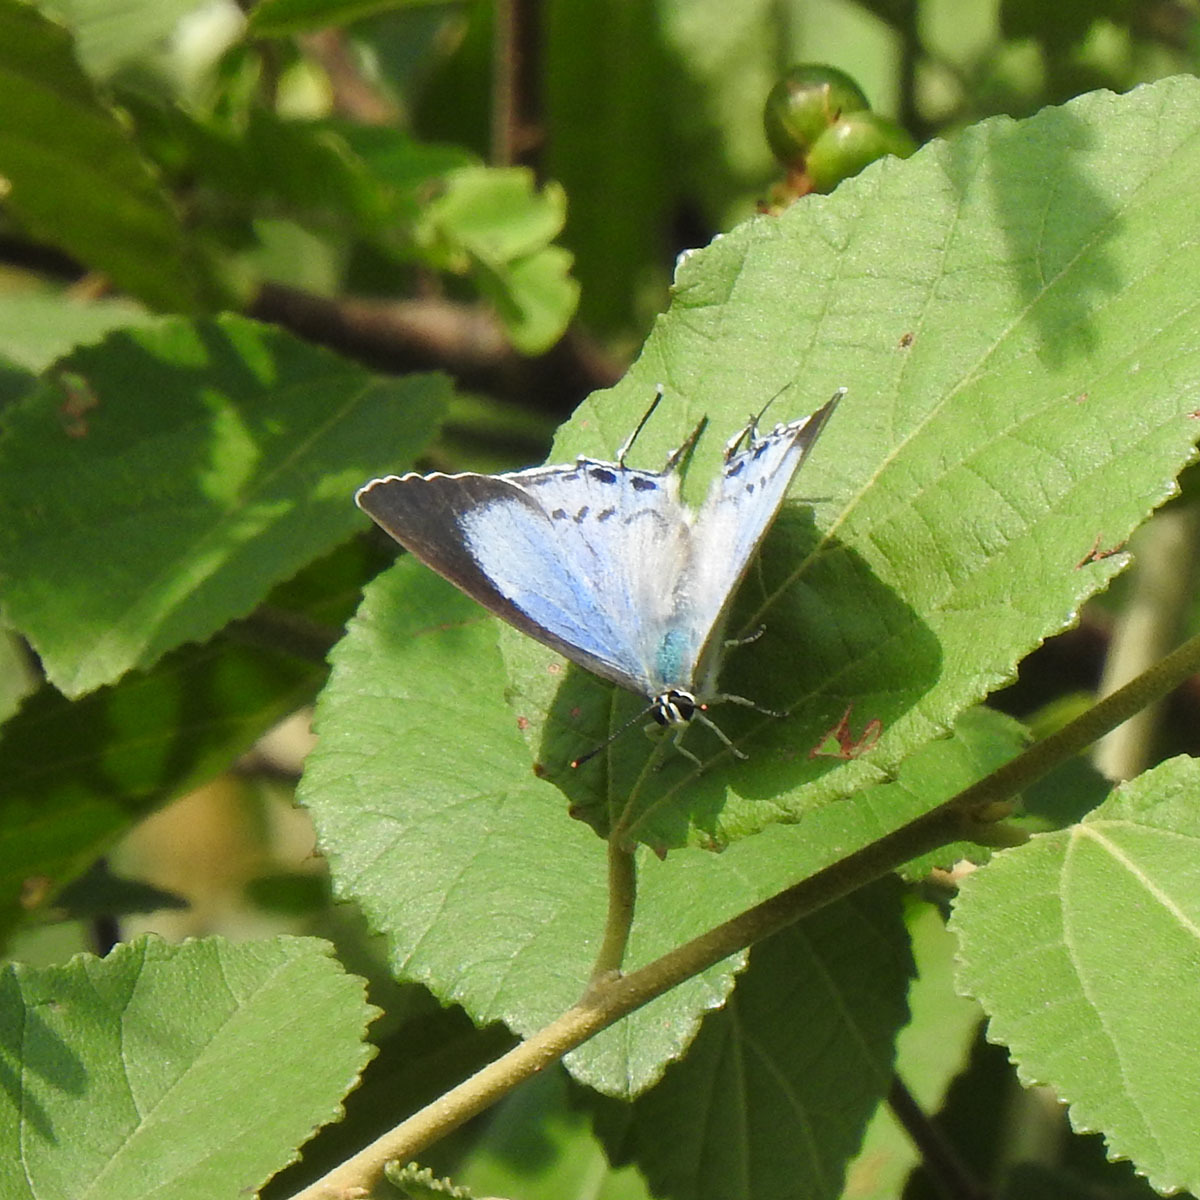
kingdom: Animalia
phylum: Arthropoda
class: Insecta
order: Lepidoptera
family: Lycaenidae
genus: Tajuria
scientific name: Tajuria cippus
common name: Peacock royal
